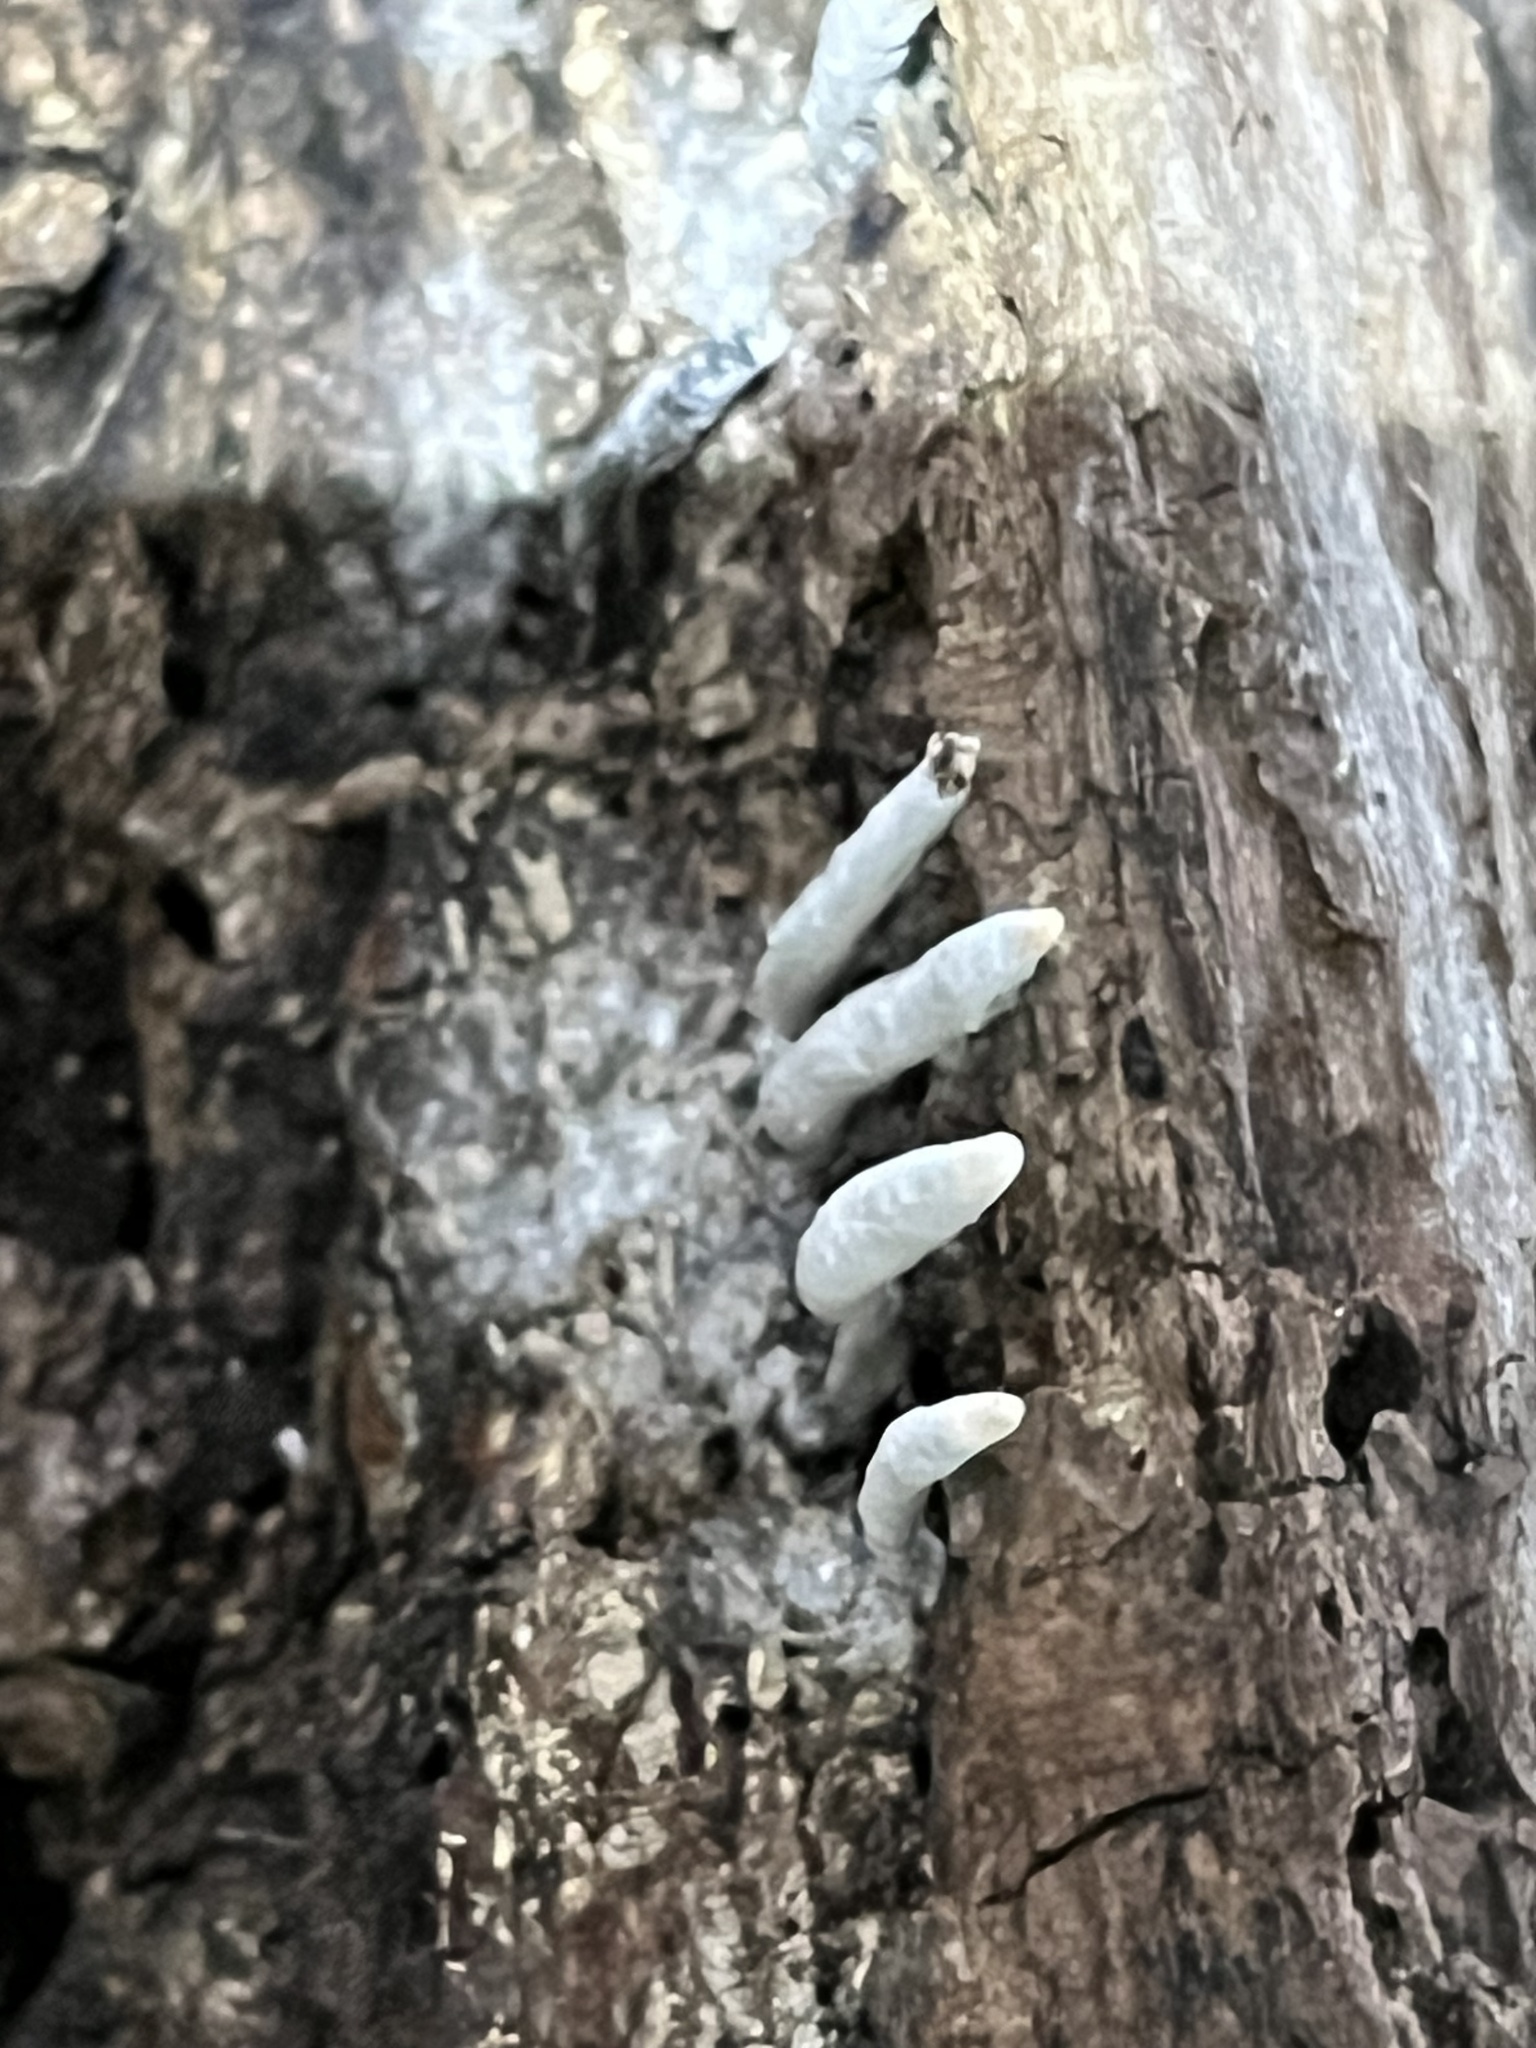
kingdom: Fungi
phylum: Ascomycota
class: Sordariomycetes
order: Xylariales
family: Xylariaceae
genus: Xylaria
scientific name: Xylaria polymorpha
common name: Dead man's fingers
